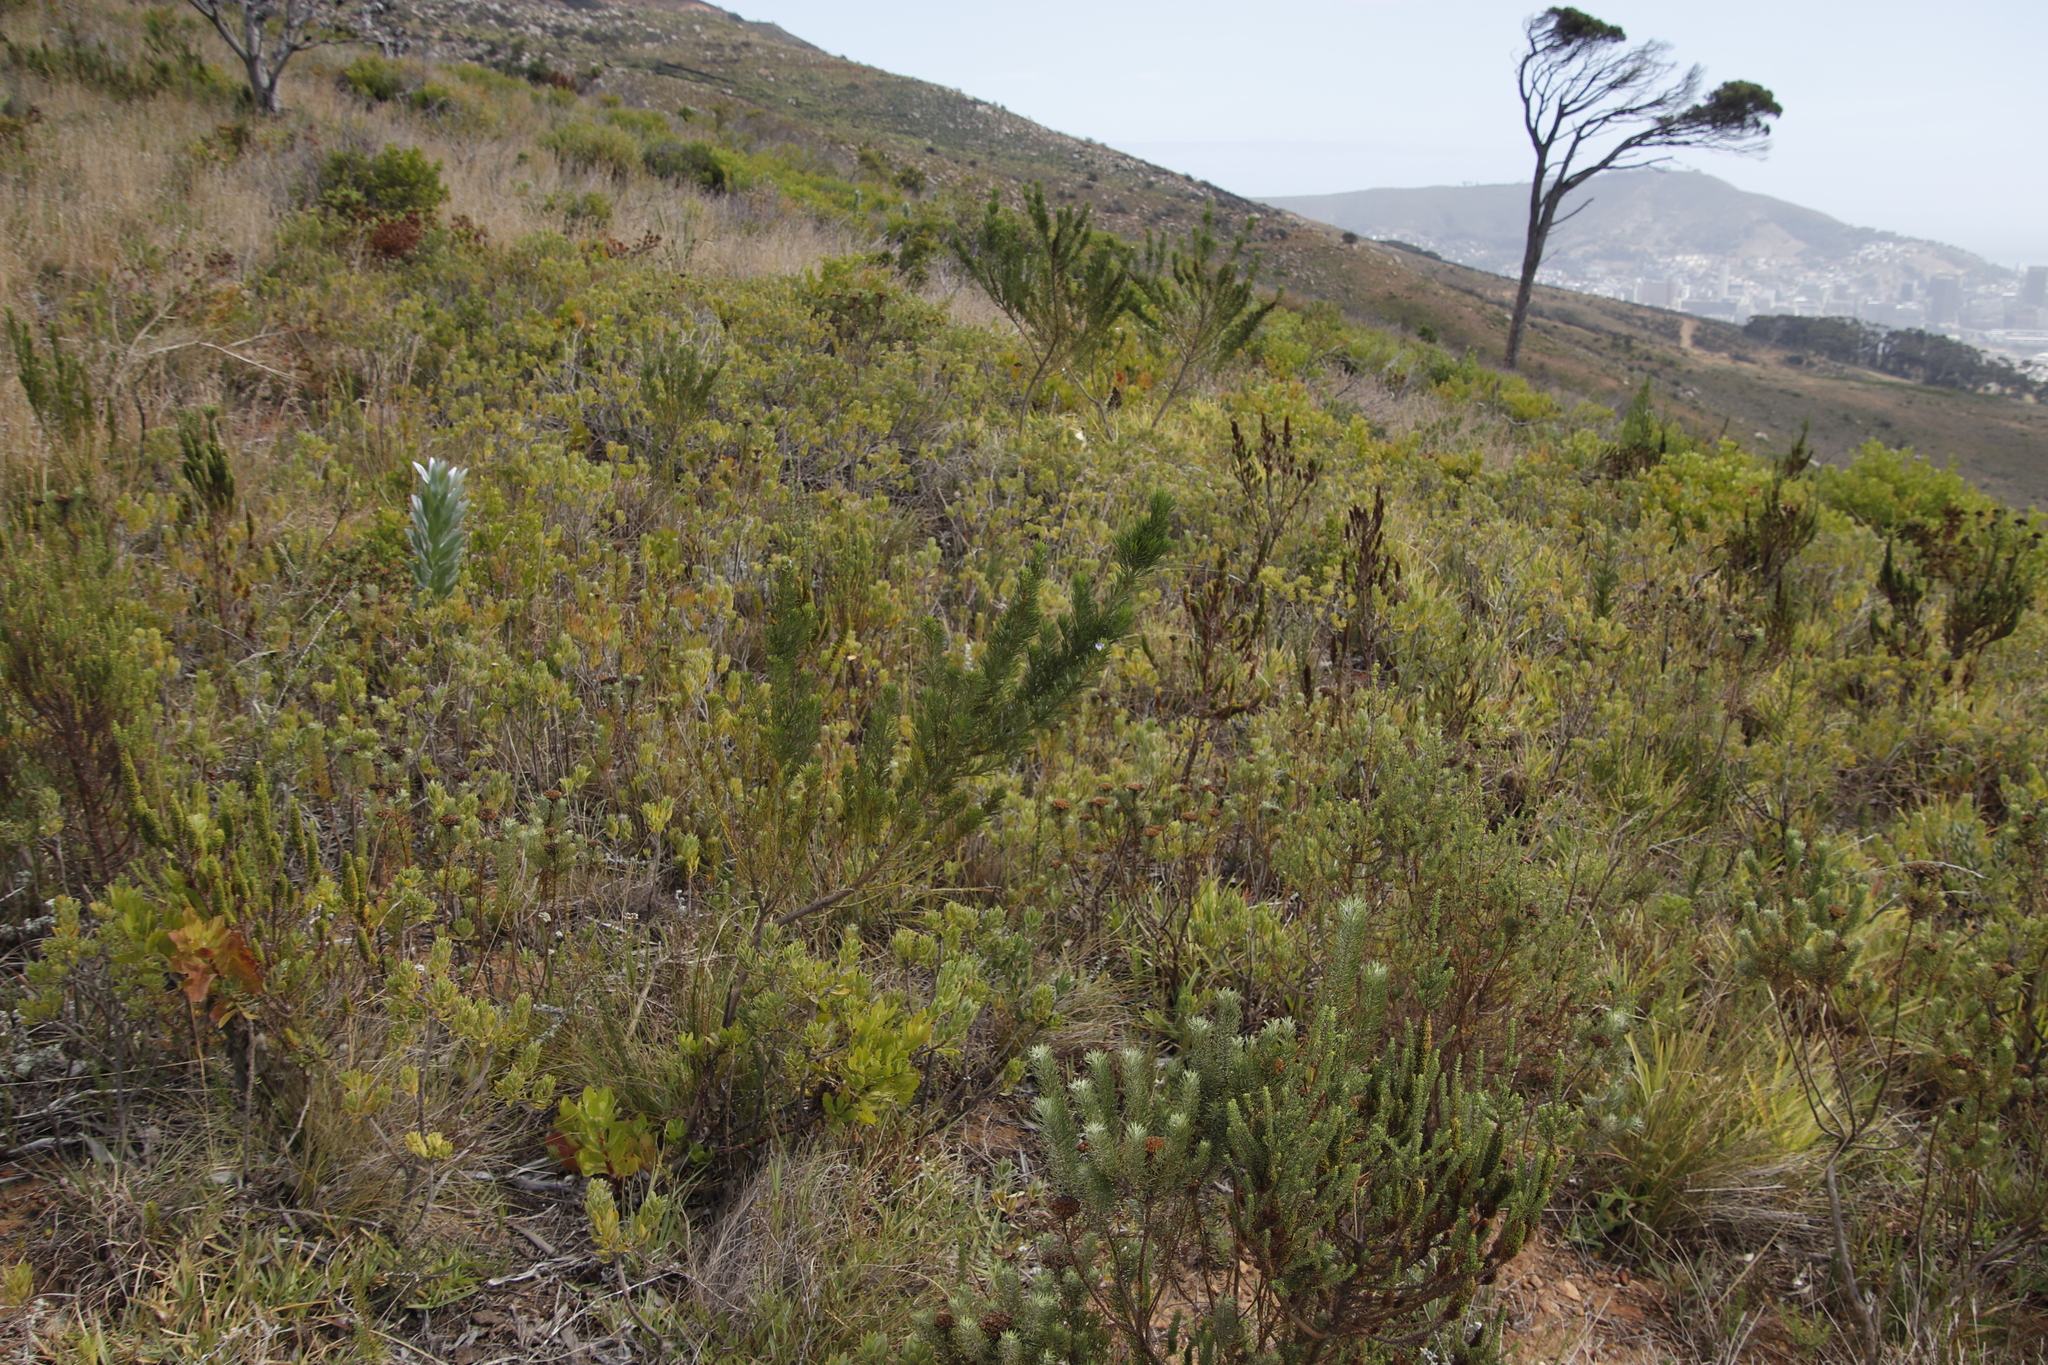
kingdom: Plantae
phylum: Tracheophyta
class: Magnoliopsida
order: Fabales
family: Fabaceae
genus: Psoralea
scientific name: Psoralea pinnata
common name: African scurfpea
